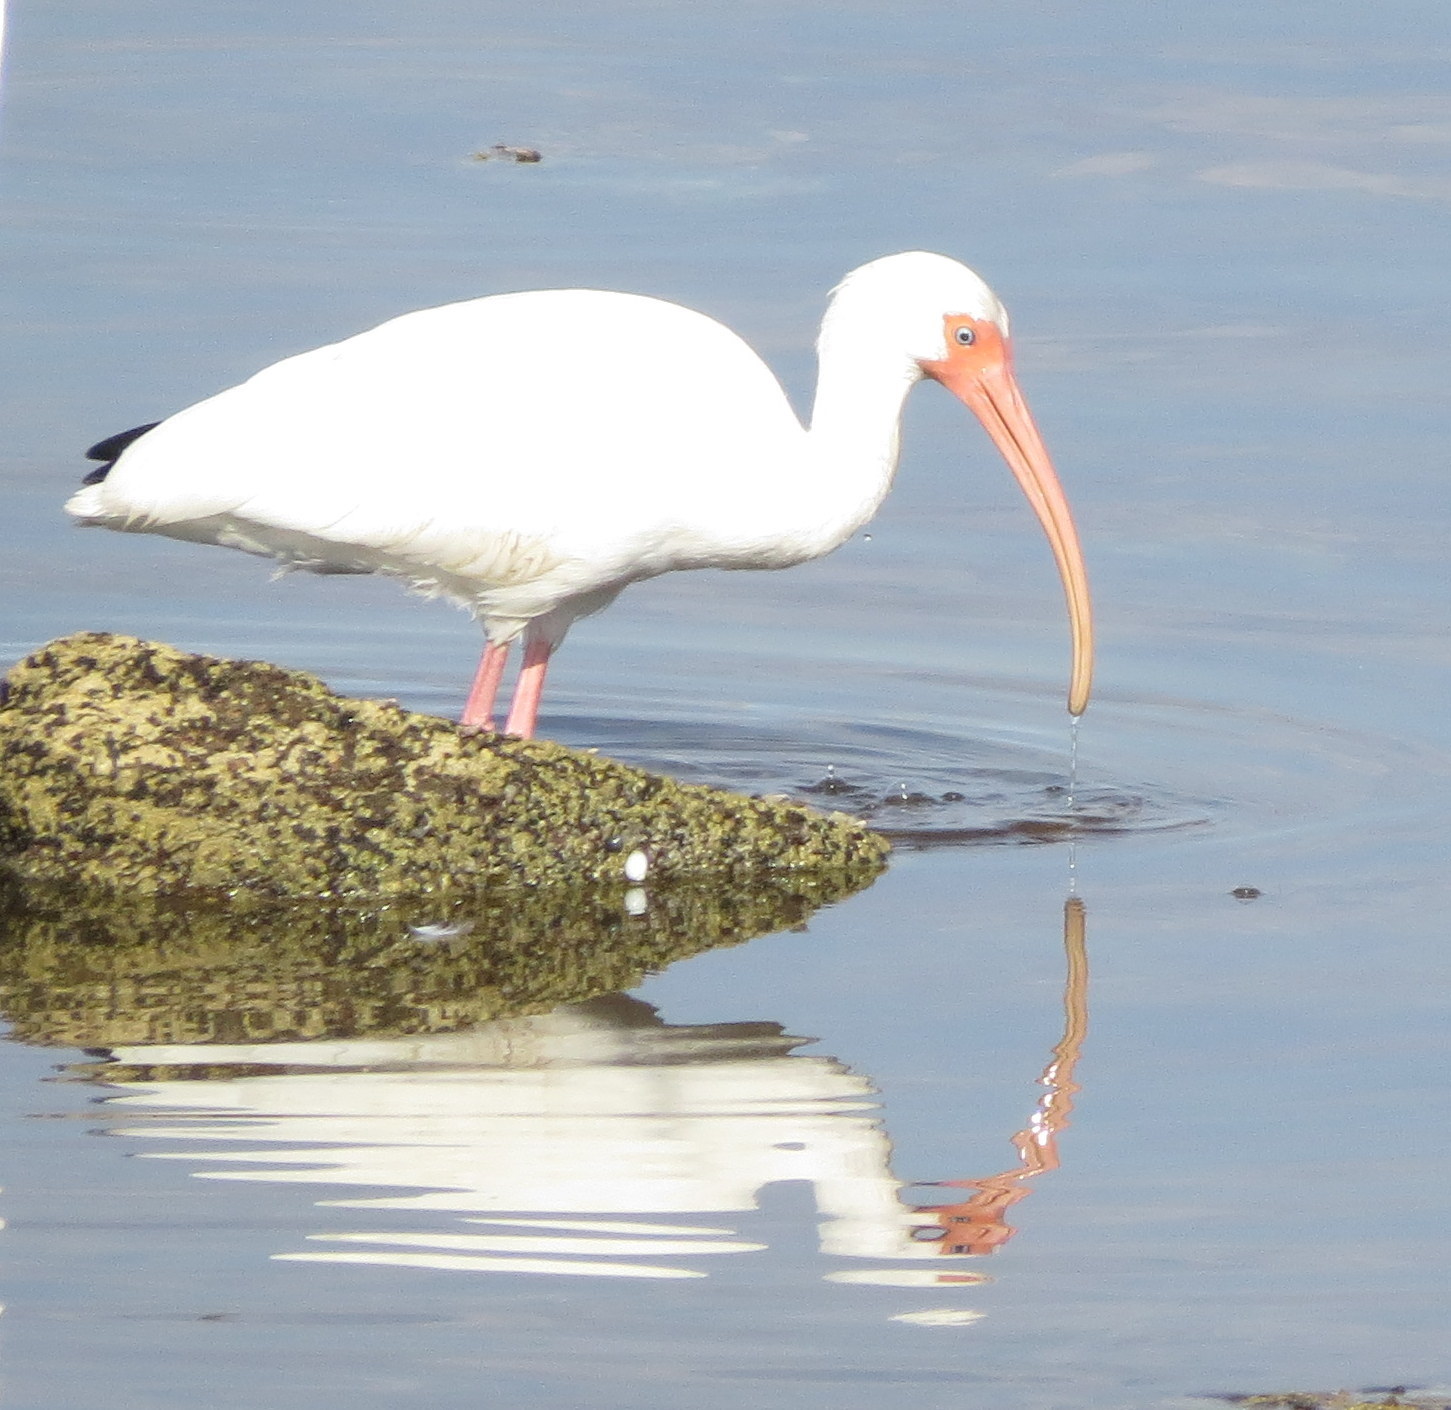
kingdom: Animalia
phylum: Chordata
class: Aves
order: Pelecaniformes
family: Threskiornithidae
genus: Eudocimus
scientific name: Eudocimus albus
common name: White ibis
